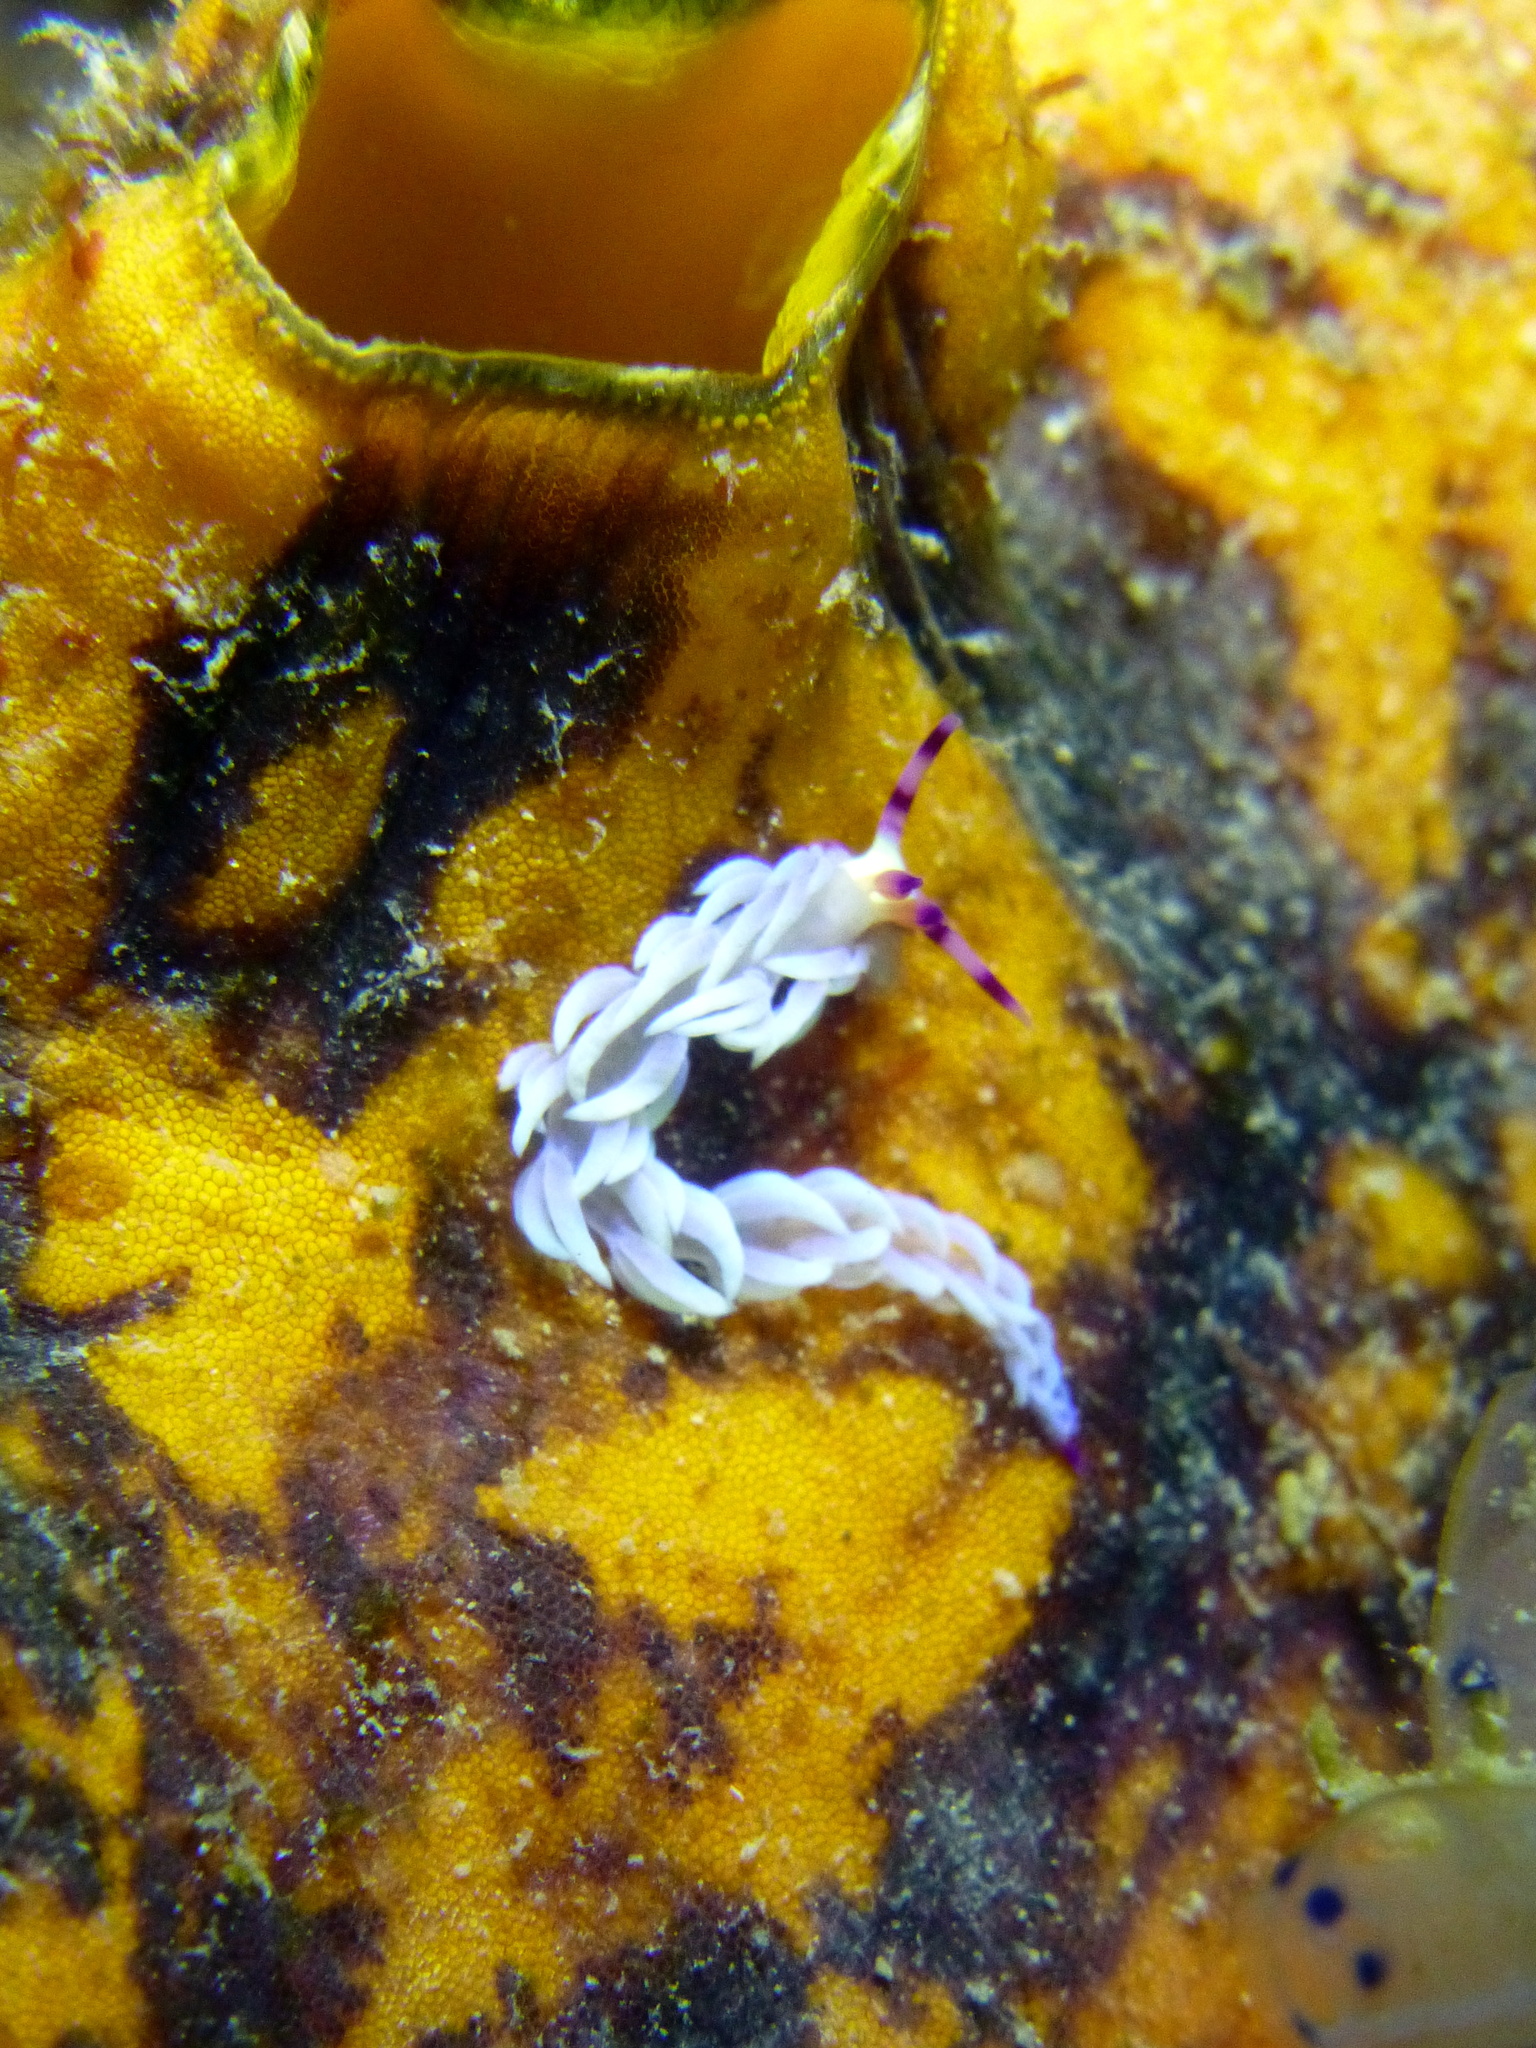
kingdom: Animalia
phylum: Mollusca
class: Gastropoda
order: Nudibranchia
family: Facelinidae
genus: Pteraeolidia
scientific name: Pteraeolidia semperi
